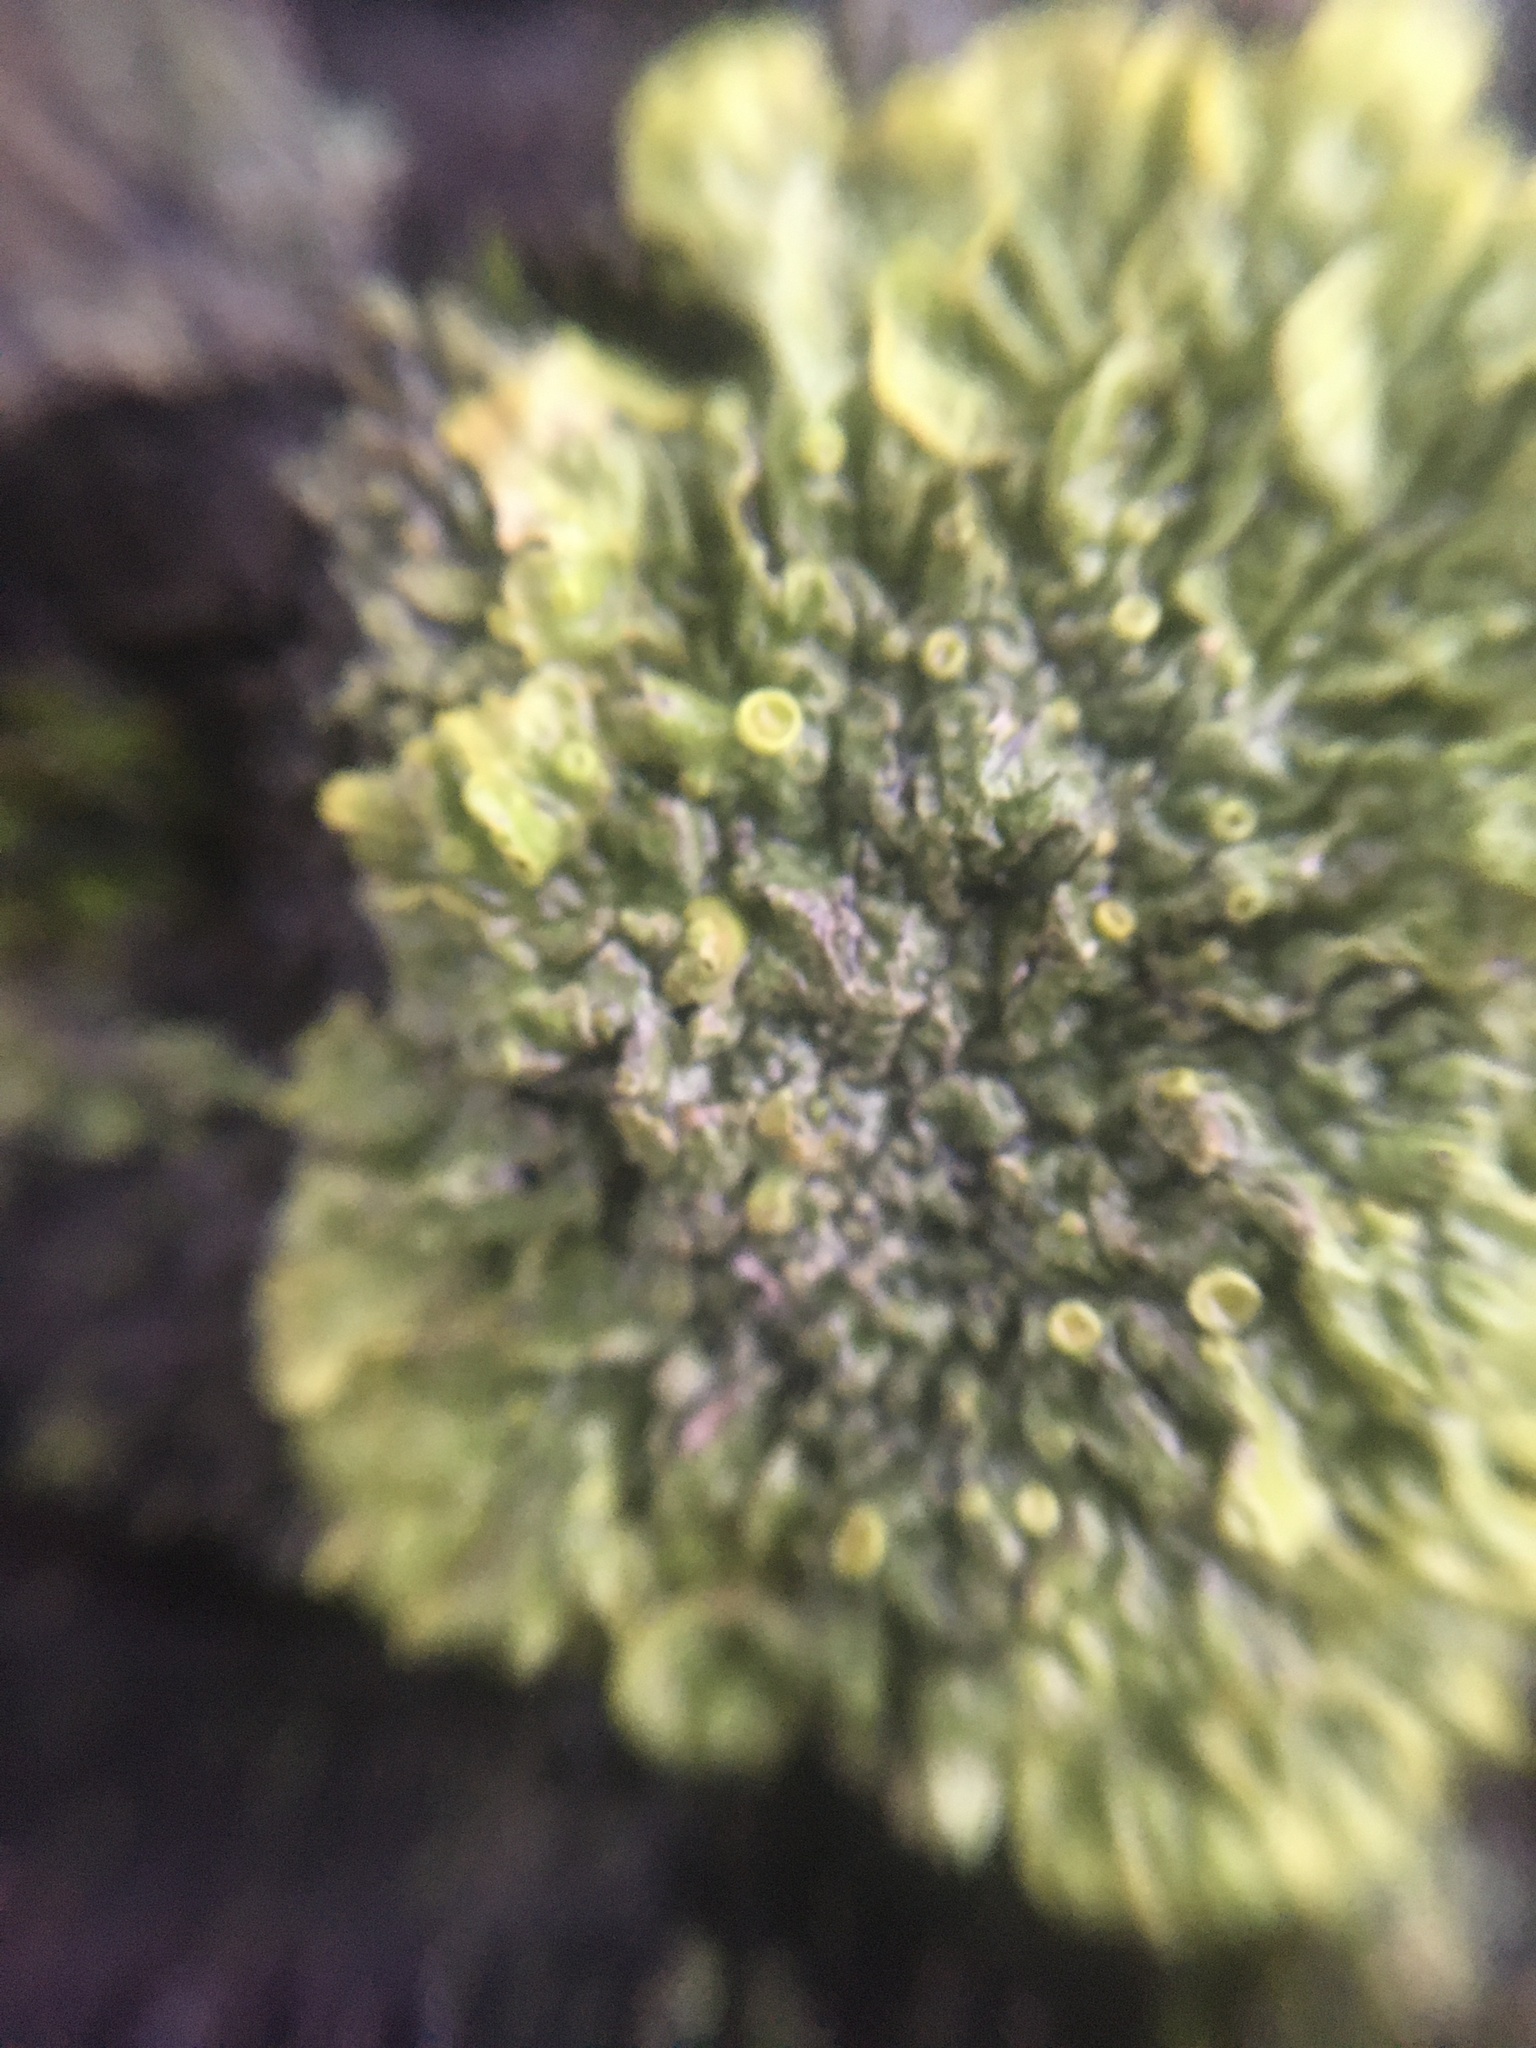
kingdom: Fungi
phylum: Ascomycota
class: Lecanoromycetes
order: Teloschistales
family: Teloschistaceae
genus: Xanthoria
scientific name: Xanthoria parietina
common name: Common orange lichen
